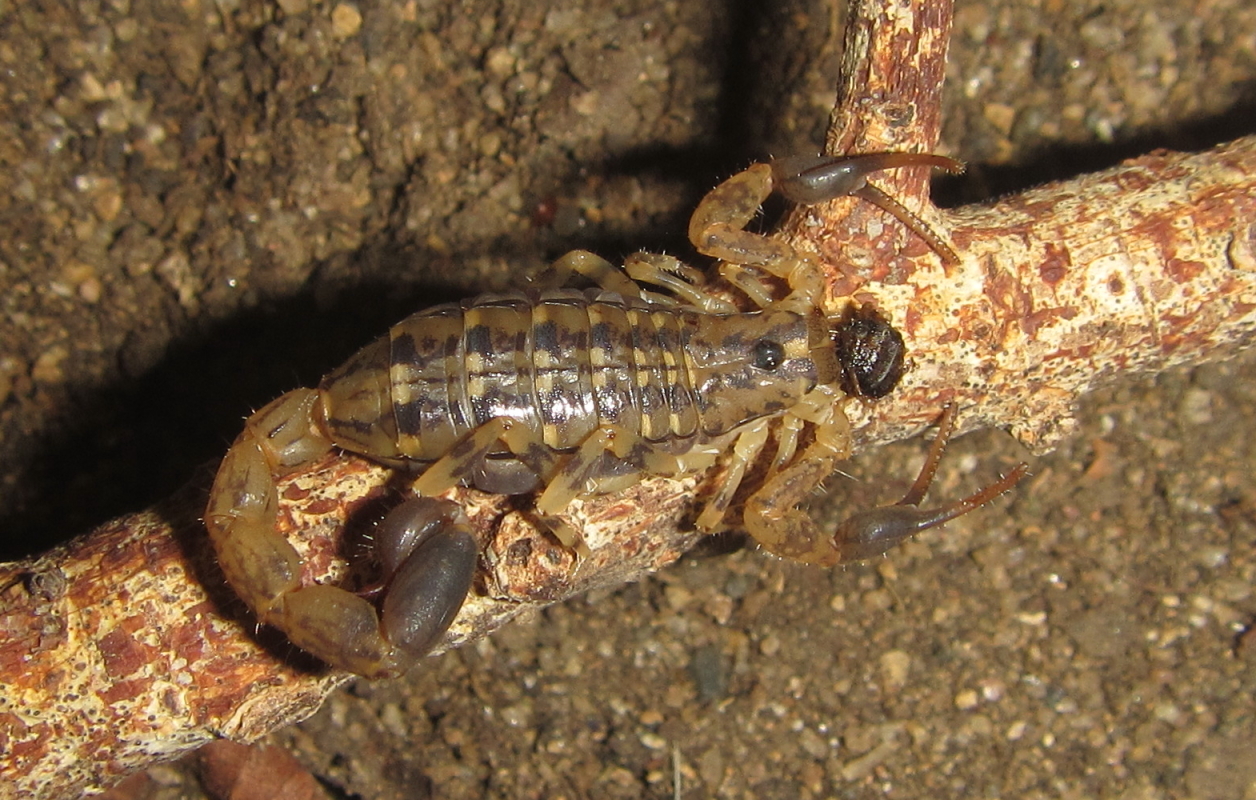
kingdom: Animalia
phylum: Arthropoda
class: Arachnida
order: Scorpiones
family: Buthidae
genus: Uroplectes
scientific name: Uroplectes formosus
